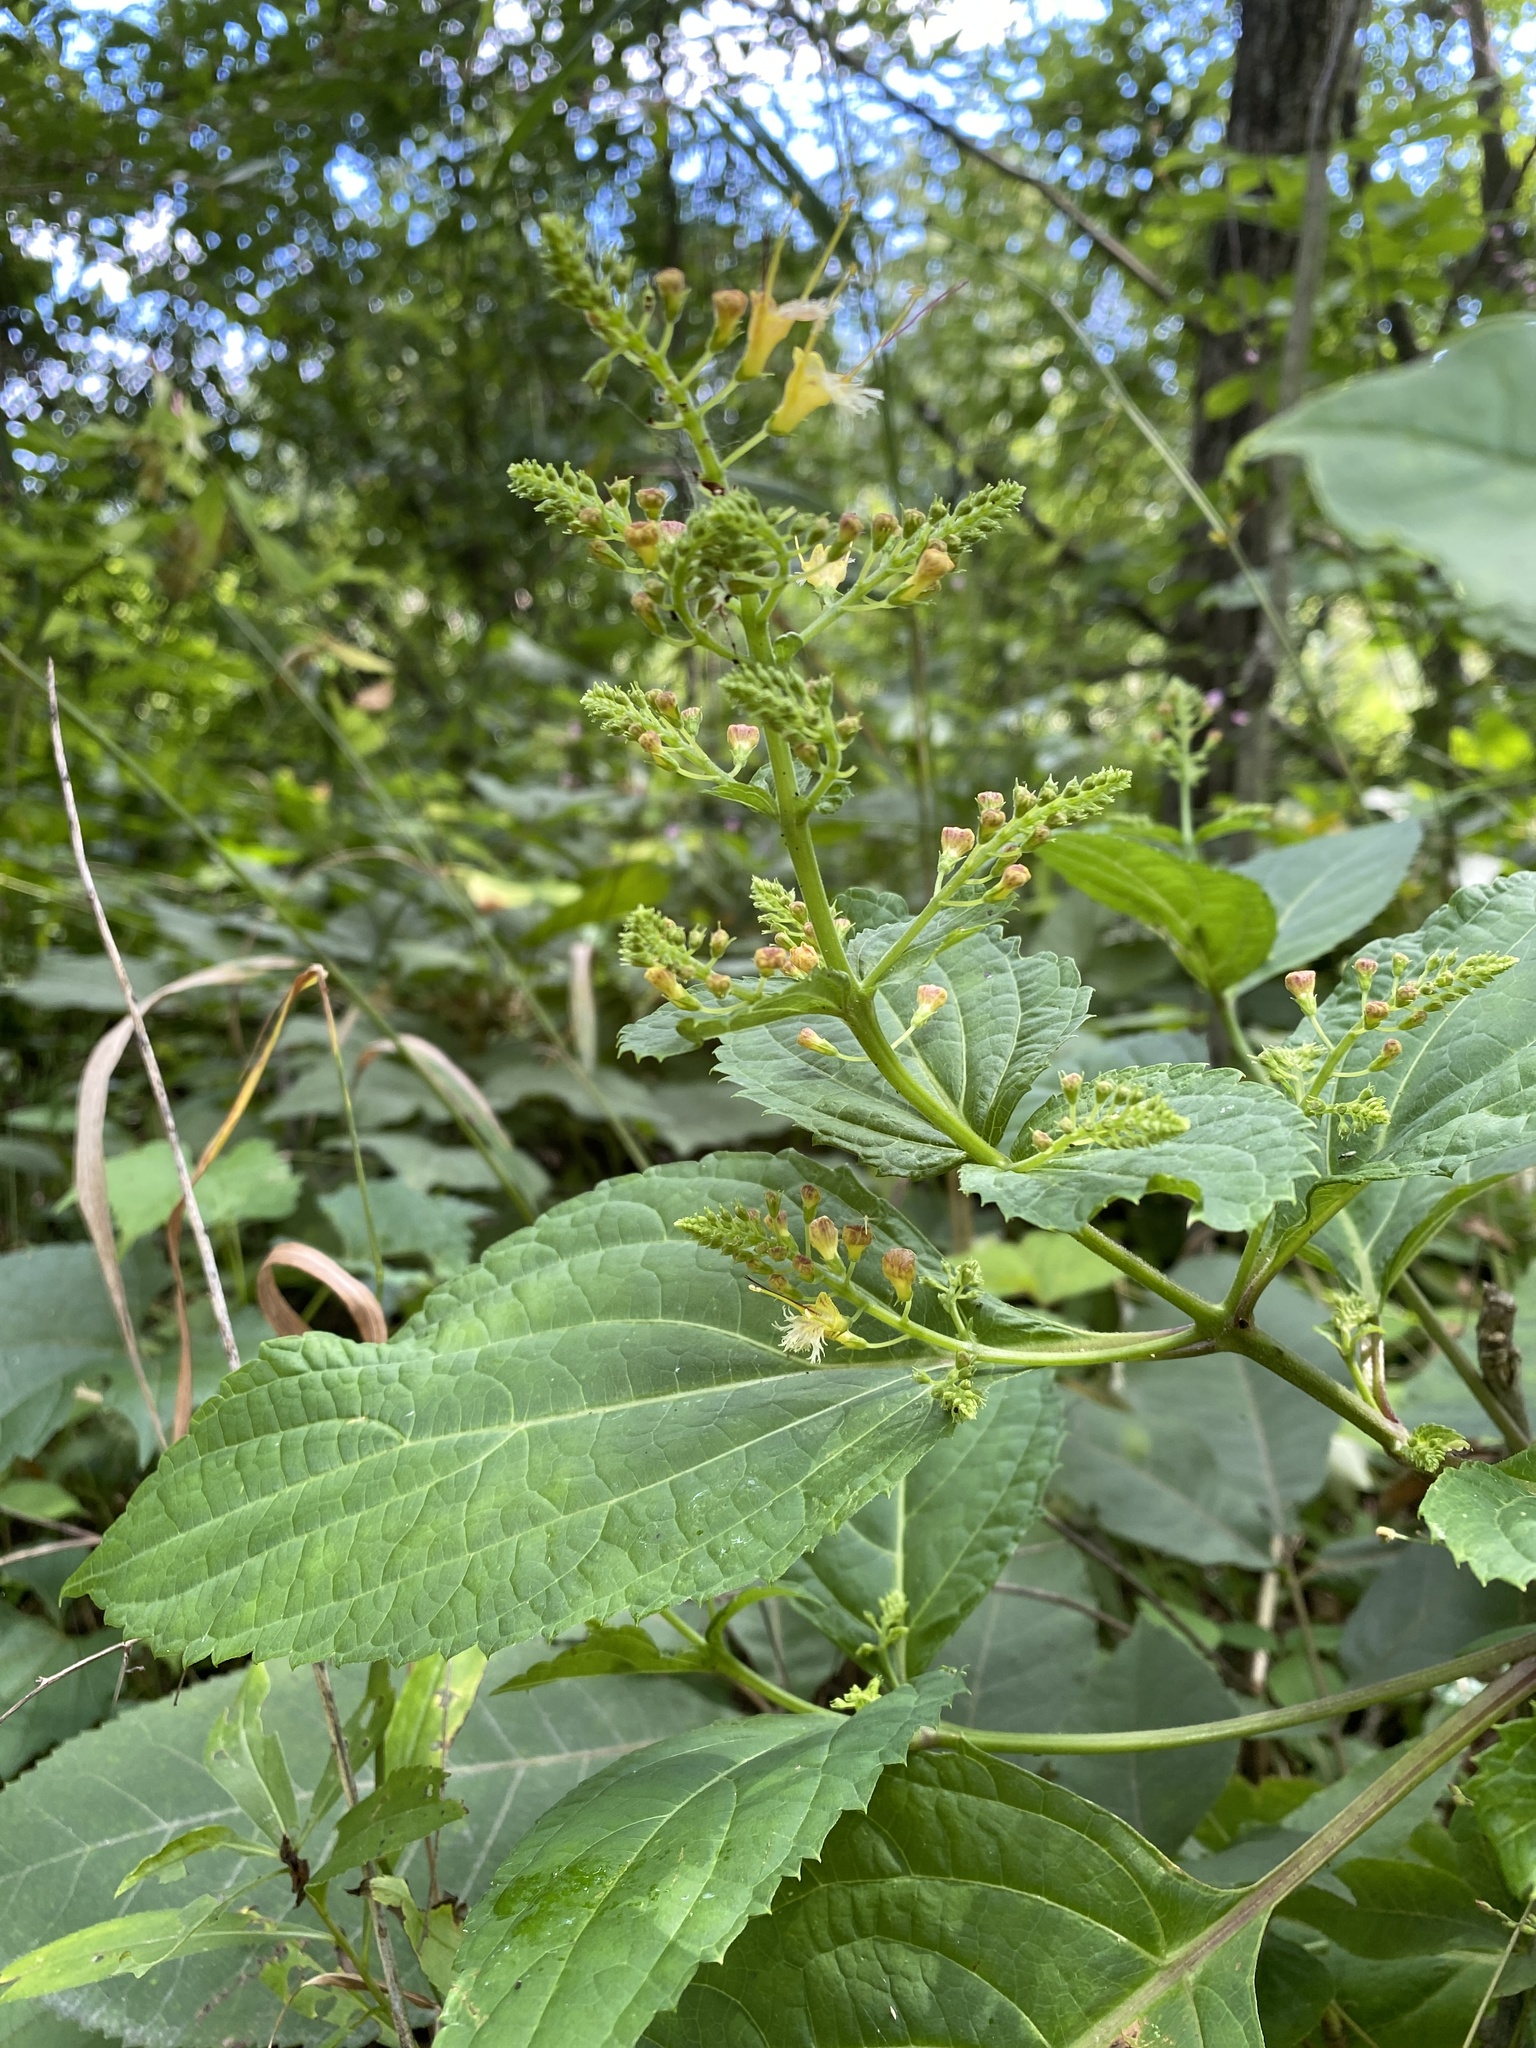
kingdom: Plantae
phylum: Tracheophyta
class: Magnoliopsida
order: Lamiales
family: Lamiaceae
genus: Collinsonia
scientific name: Collinsonia canadensis
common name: Northern horsebalm
